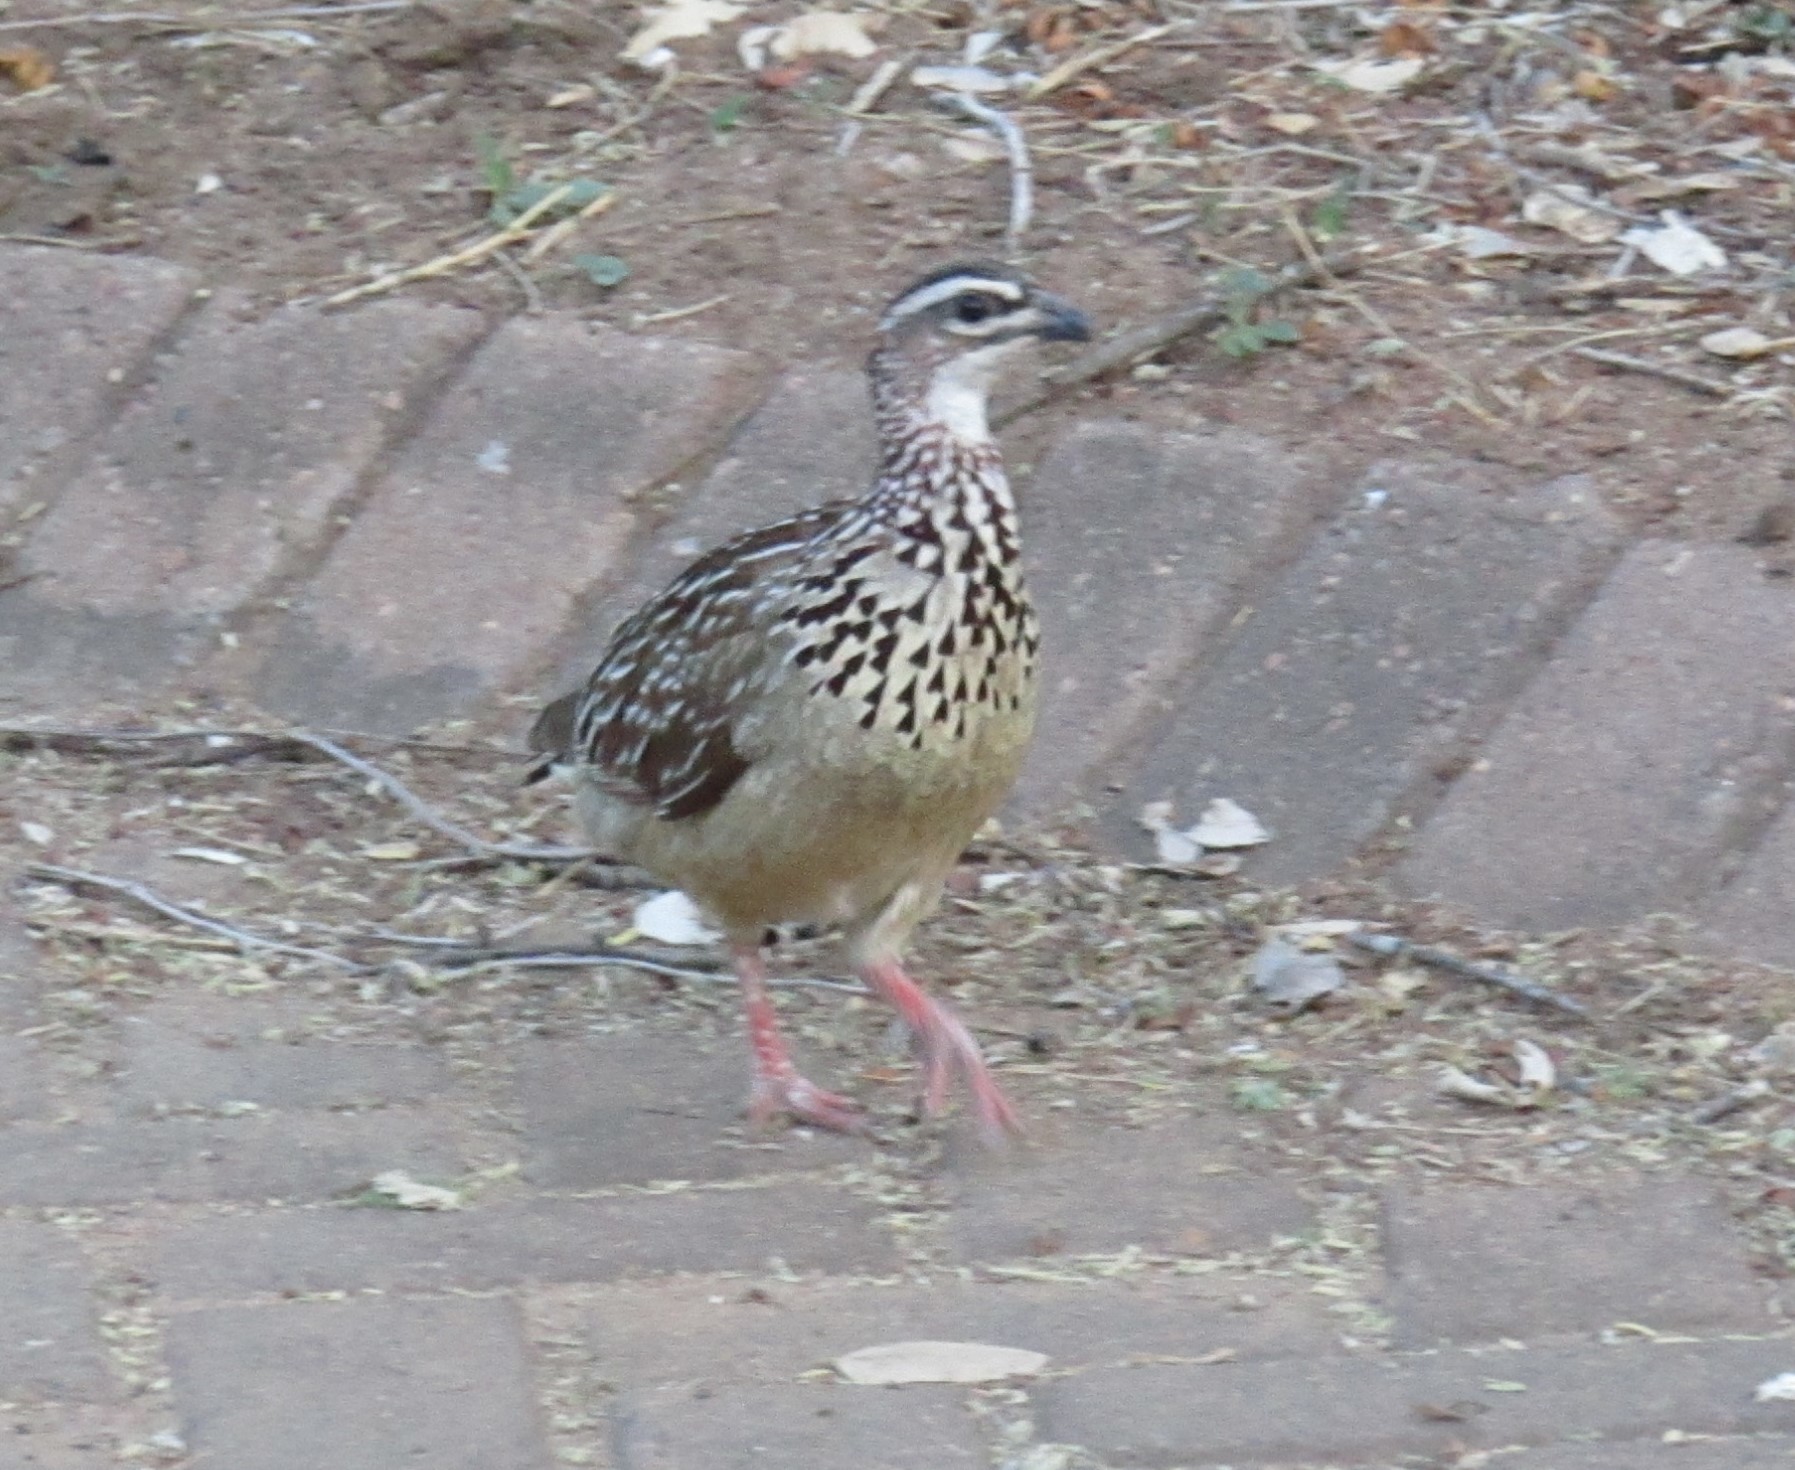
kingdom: Animalia
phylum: Chordata
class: Aves
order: Galliformes
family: Phasianidae
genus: Ortygornis
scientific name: Ortygornis sephaena
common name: Crested francolin
